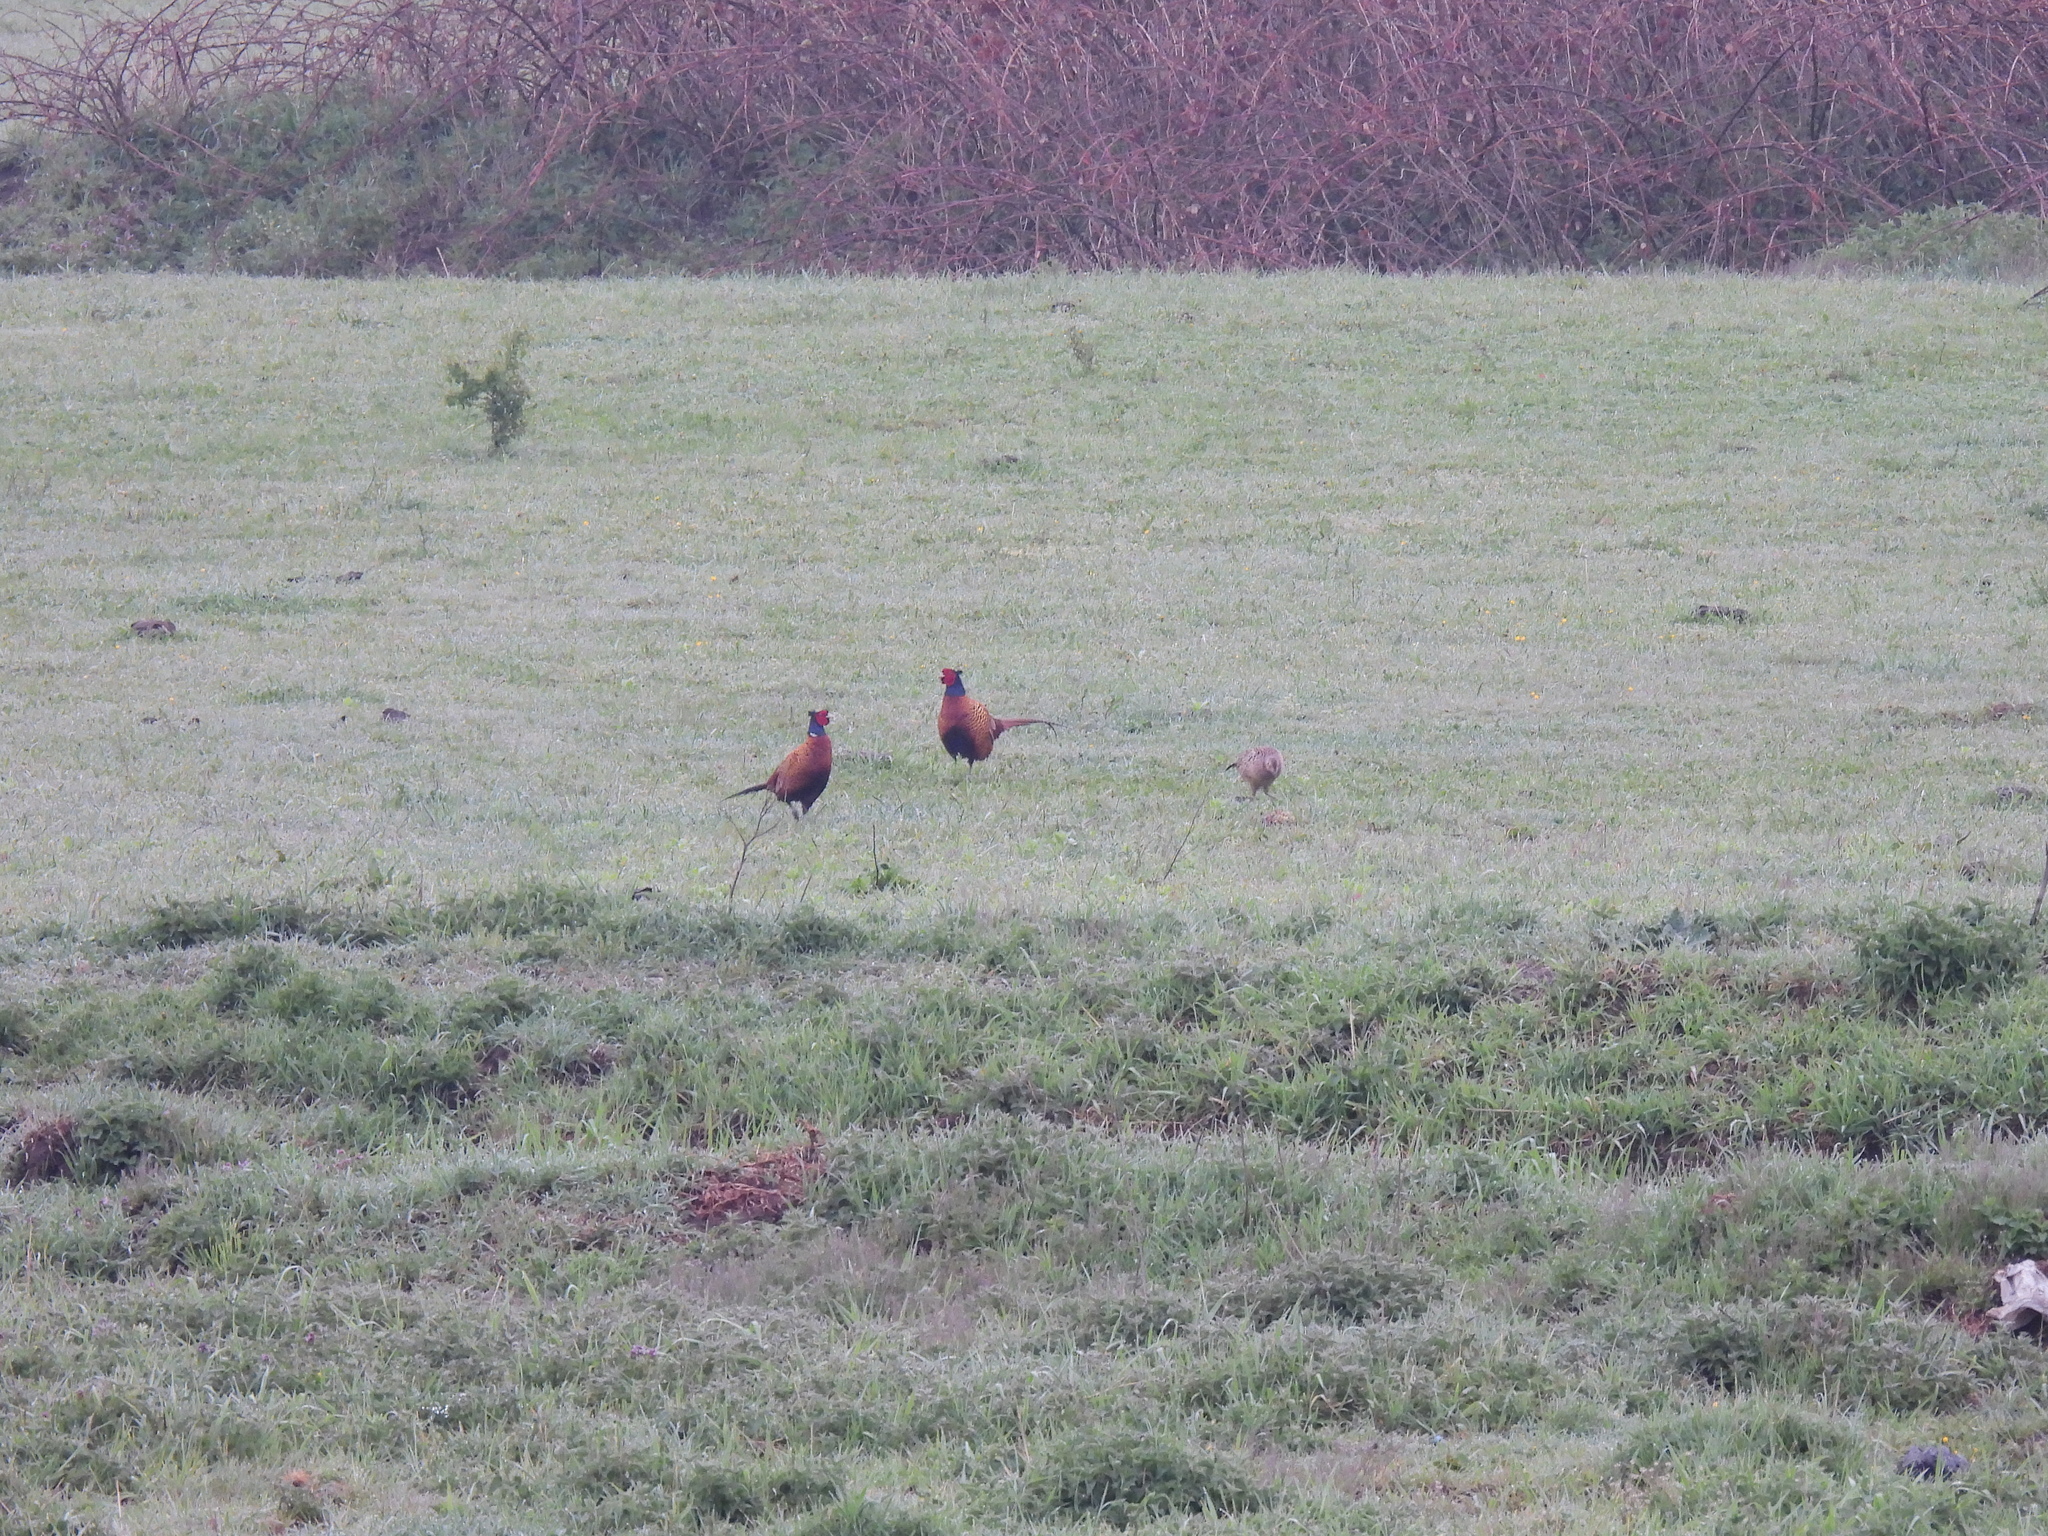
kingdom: Animalia
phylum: Chordata
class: Aves
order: Galliformes
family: Phasianidae
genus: Phasianus
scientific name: Phasianus colchicus
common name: Common pheasant
